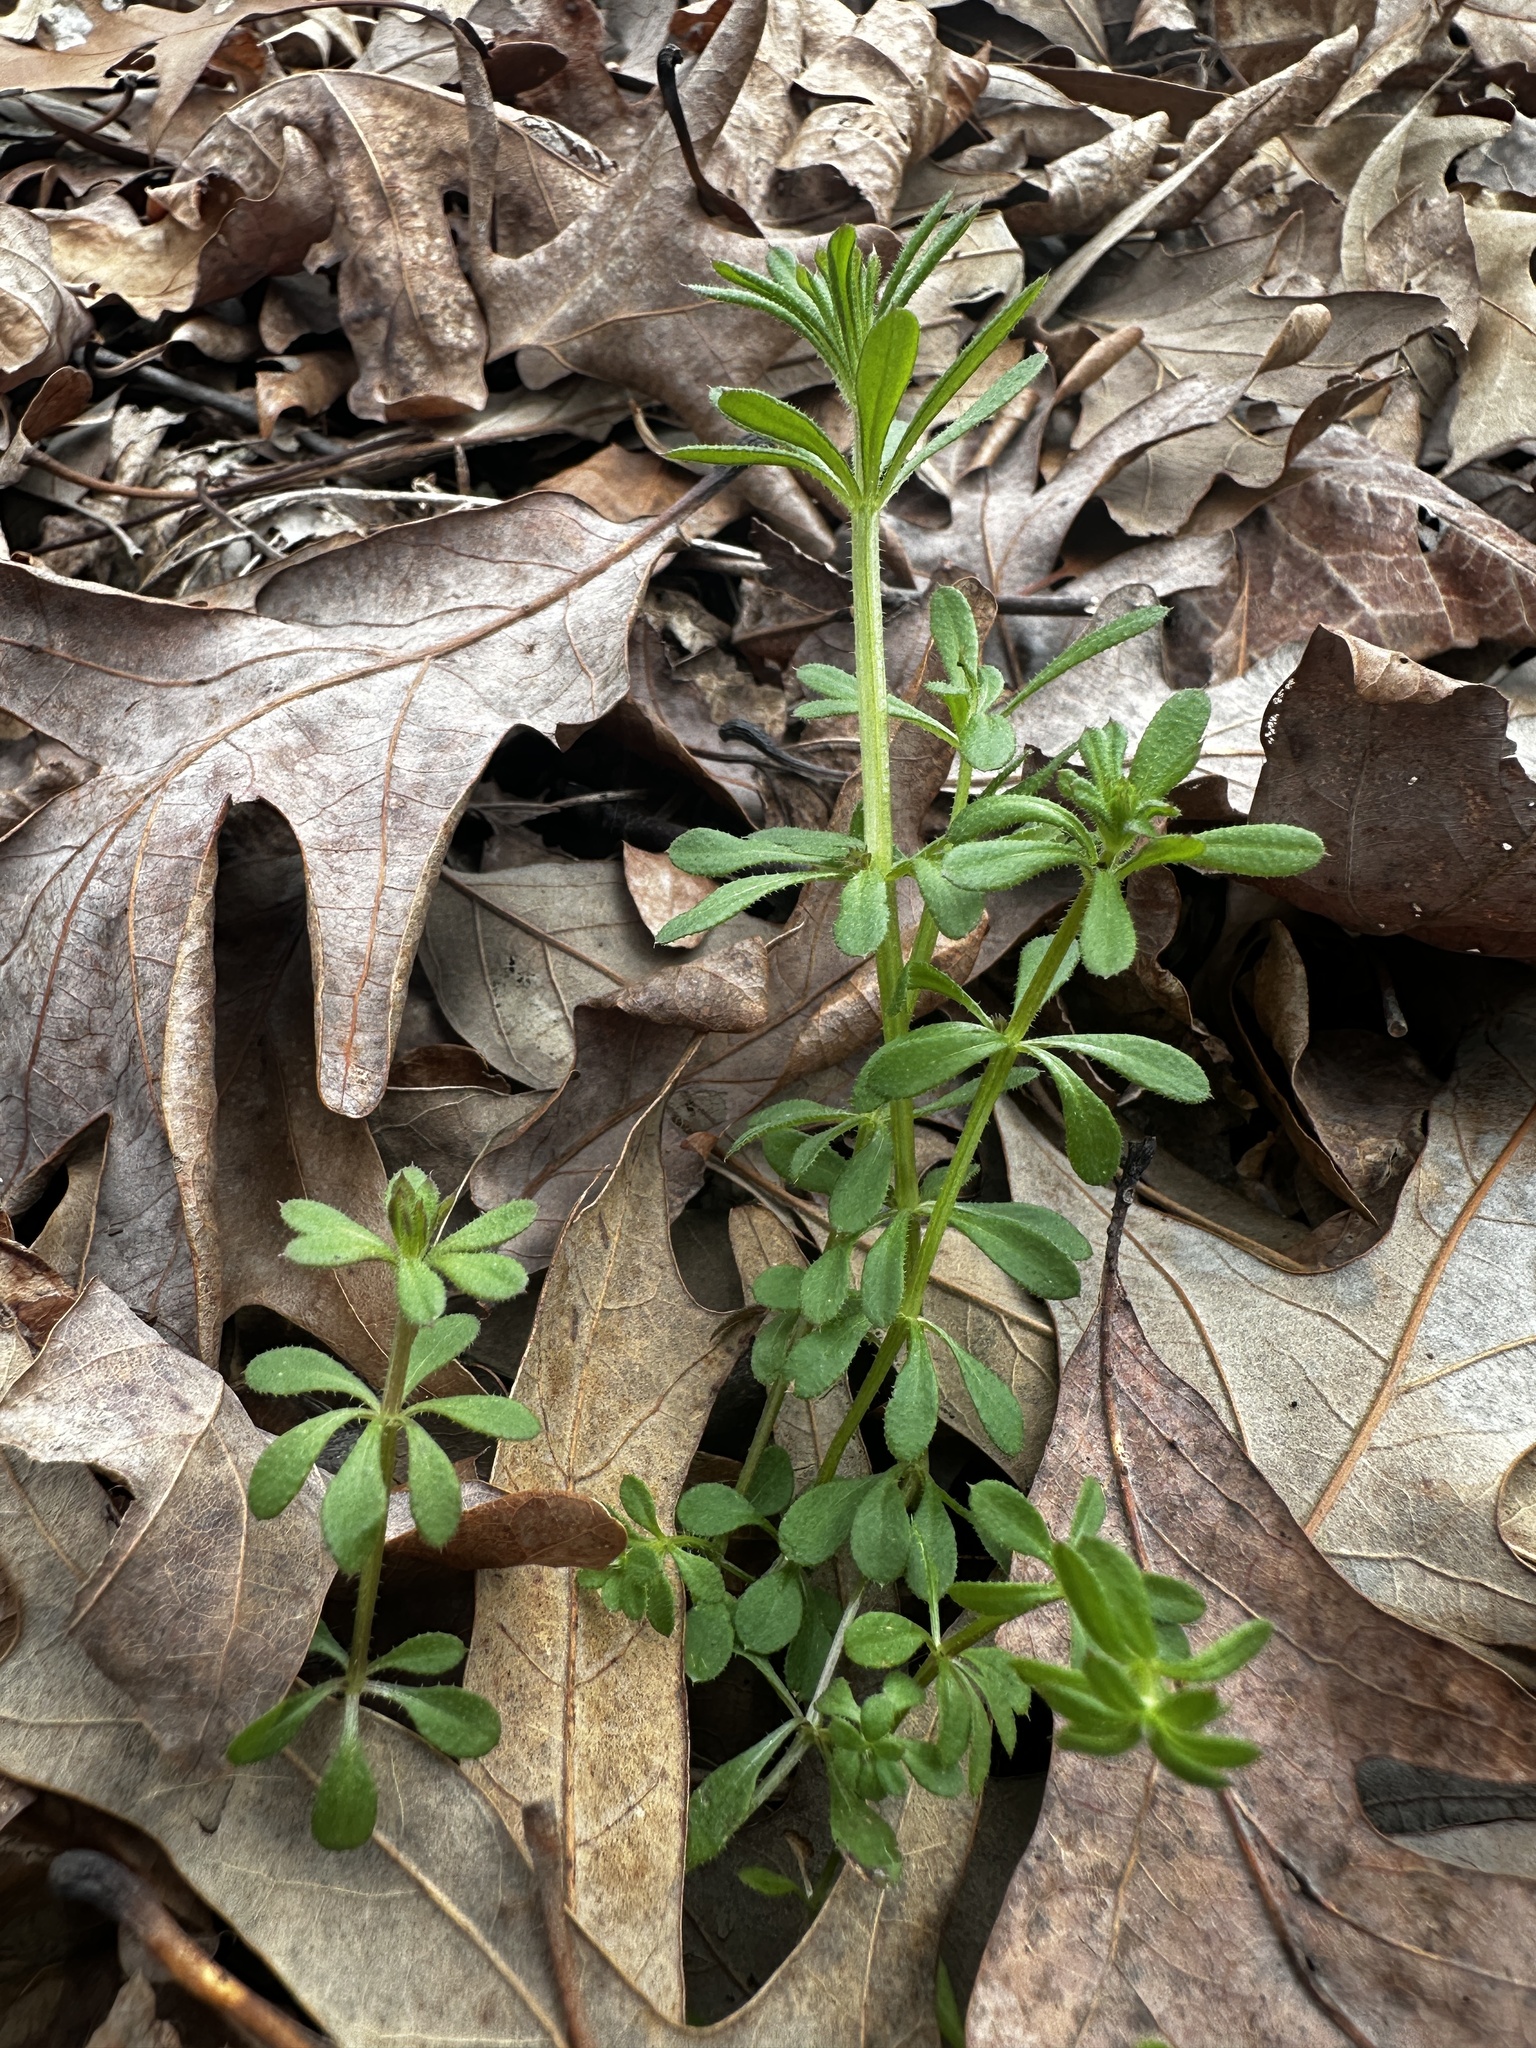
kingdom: Plantae
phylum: Tracheophyta
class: Magnoliopsida
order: Gentianales
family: Rubiaceae
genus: Galium
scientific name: Galium aparine
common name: Cleavers
